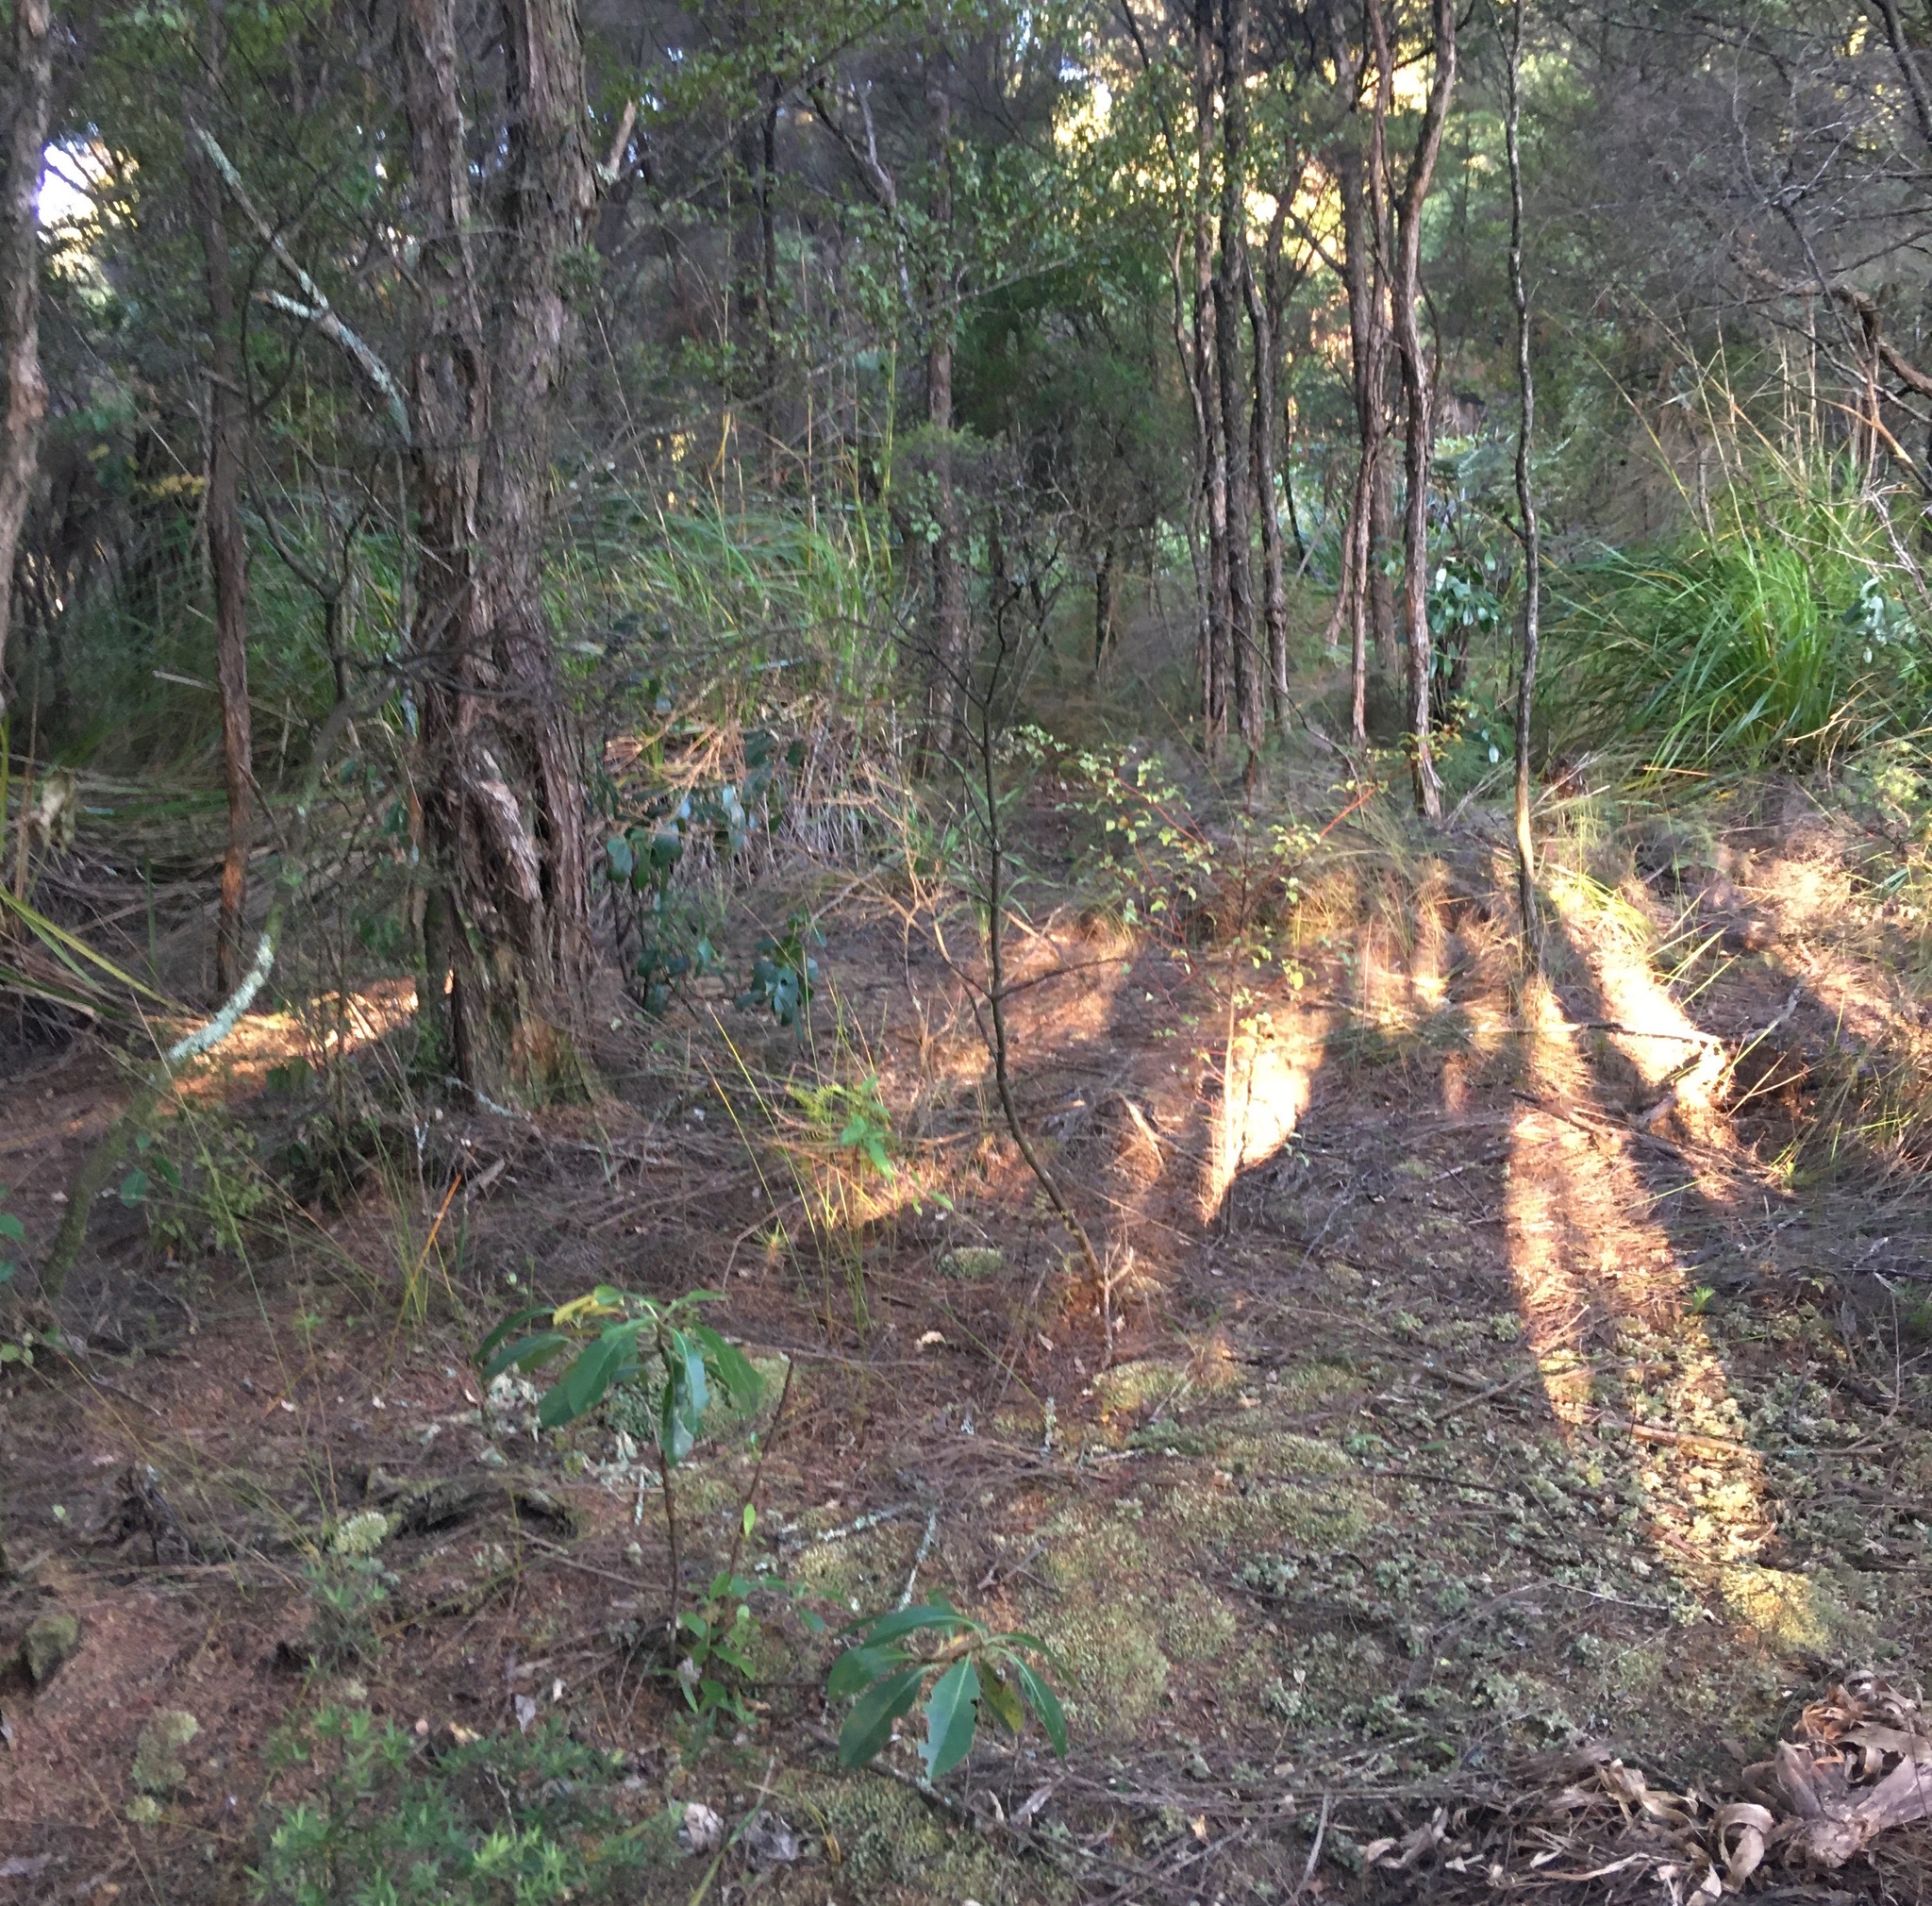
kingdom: Plantae
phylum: Tracheophyta
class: Magnoliopsida
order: Gentianales
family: Rubiaceae
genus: Coprosma
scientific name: Coprosma lucida
